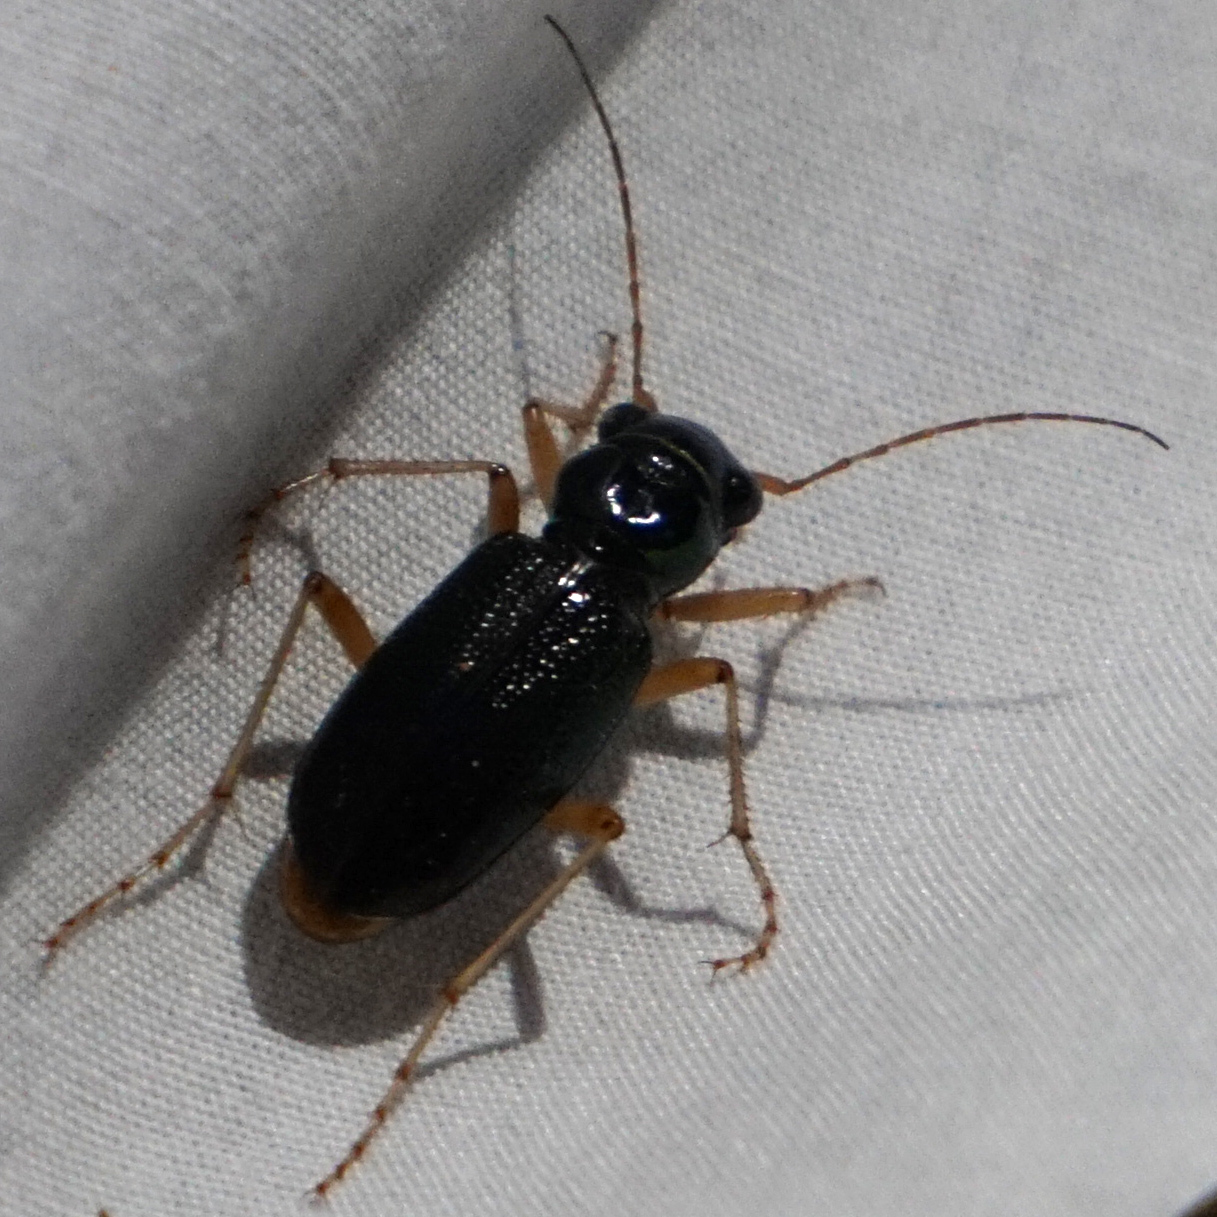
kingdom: Animalia
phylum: Arthropoda
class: Insecta
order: Coleoptera
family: Carabidae
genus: Tetracha
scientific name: Tetracha virginica
